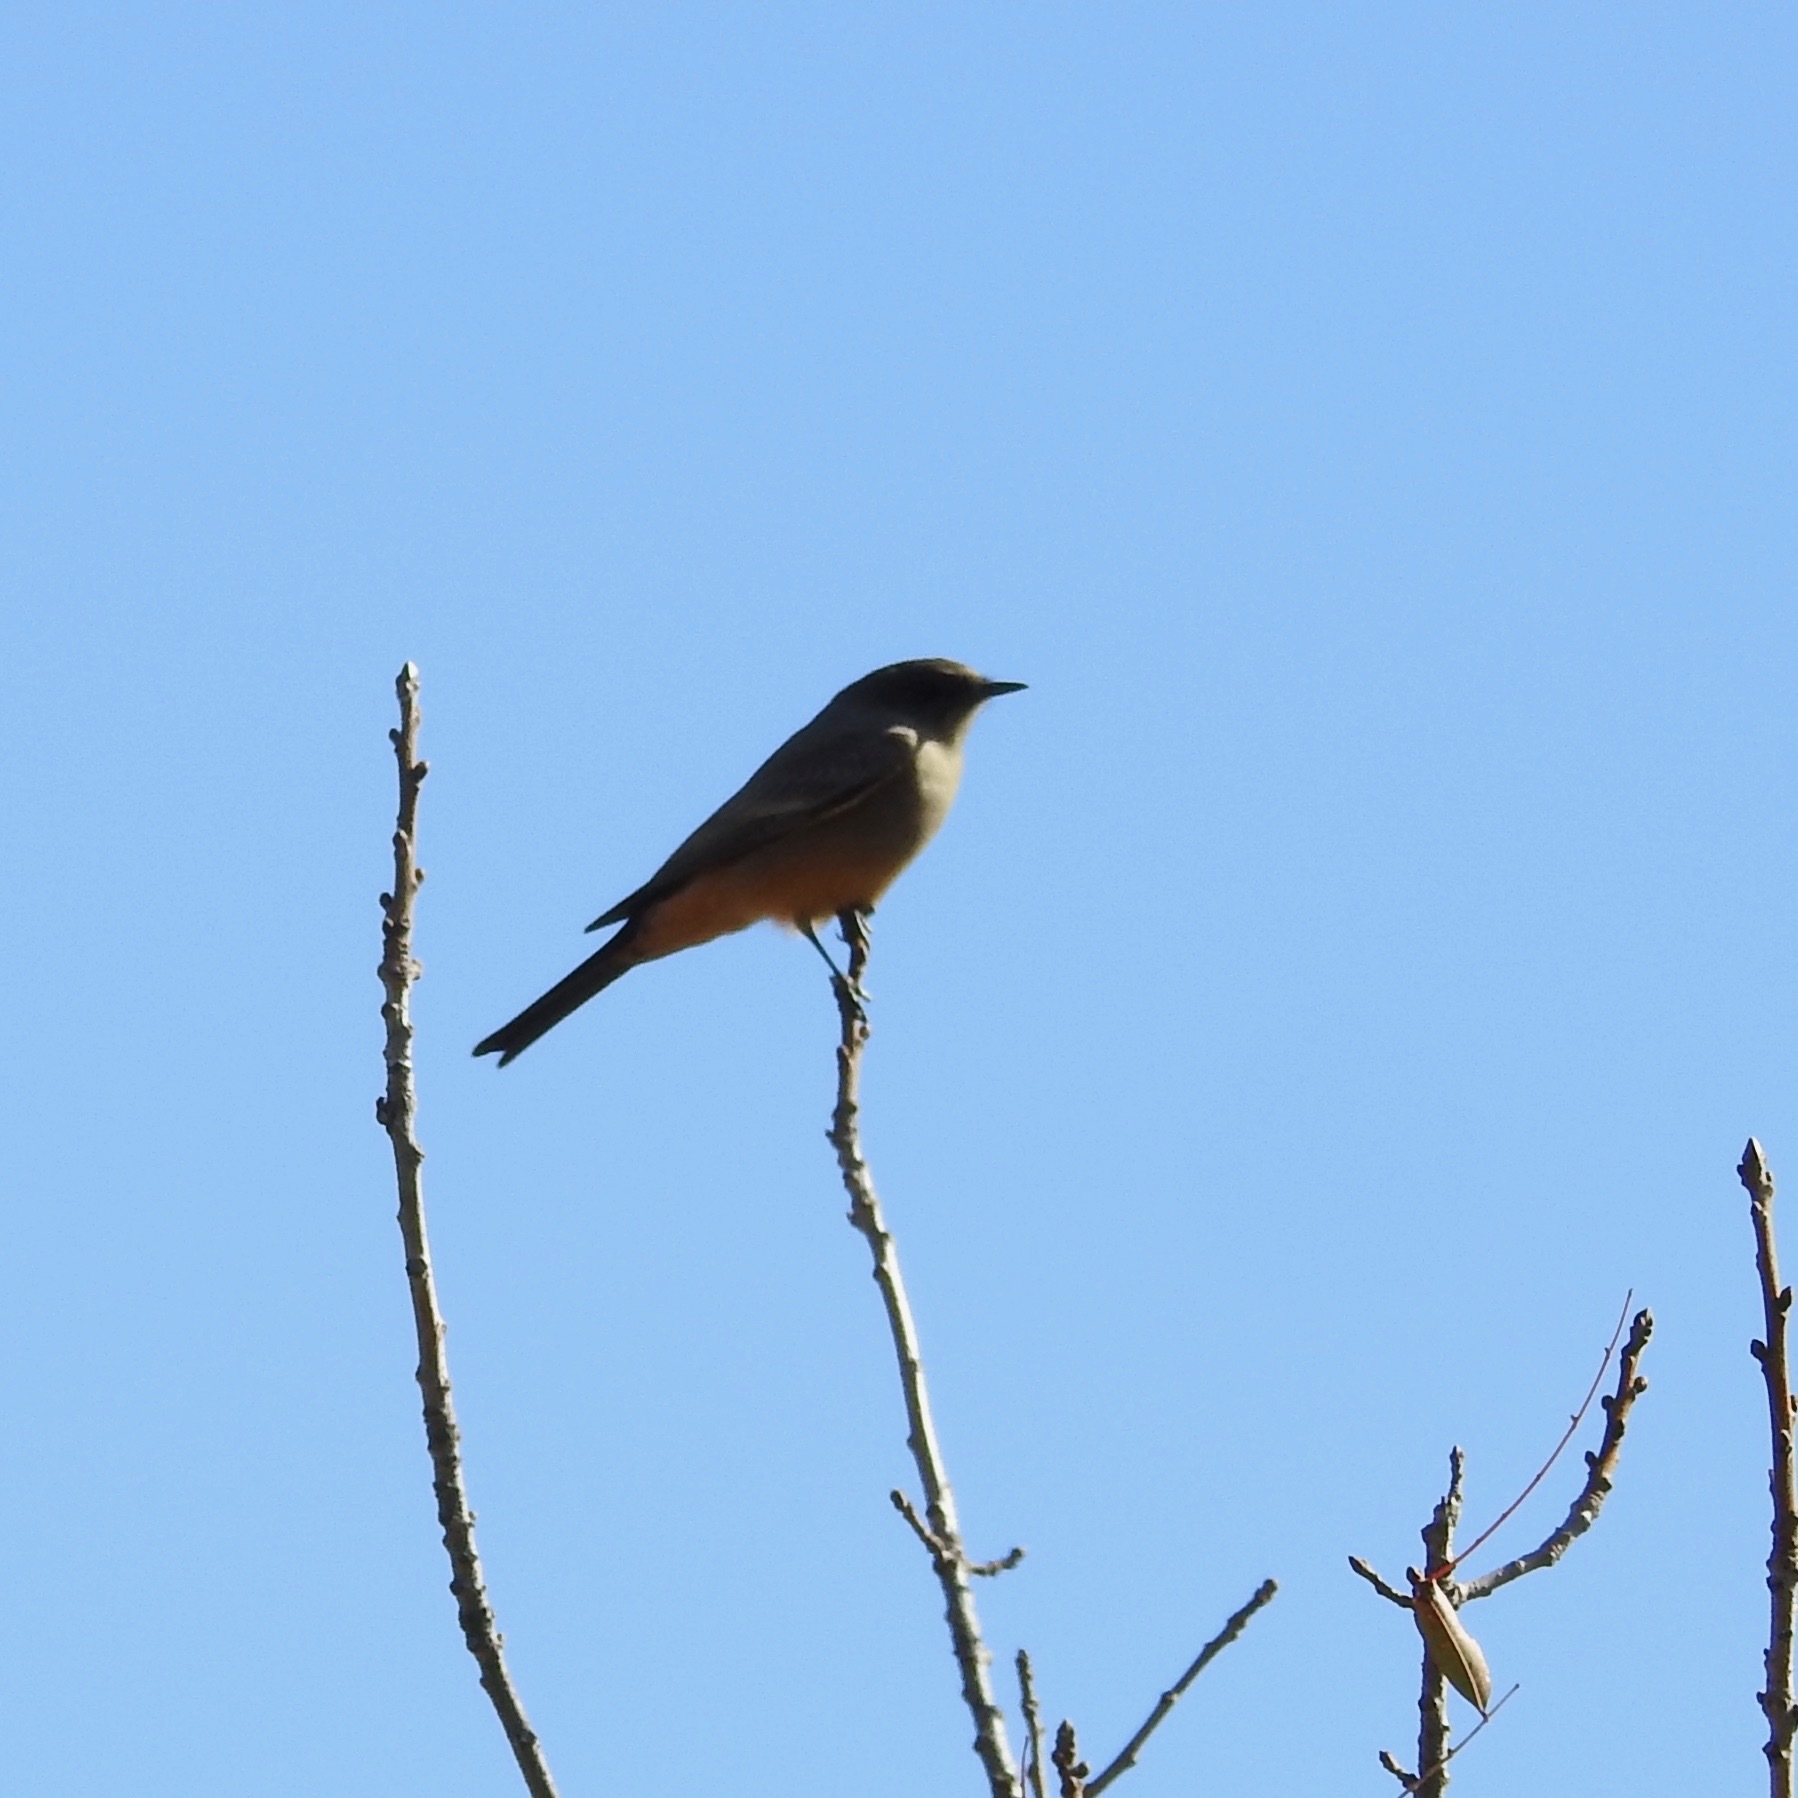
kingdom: Animalia
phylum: Chordata
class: Aves
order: Passeriformes
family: Tyrannidae
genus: Sayornis
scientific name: Sayornis saya
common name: Say's phoebe
